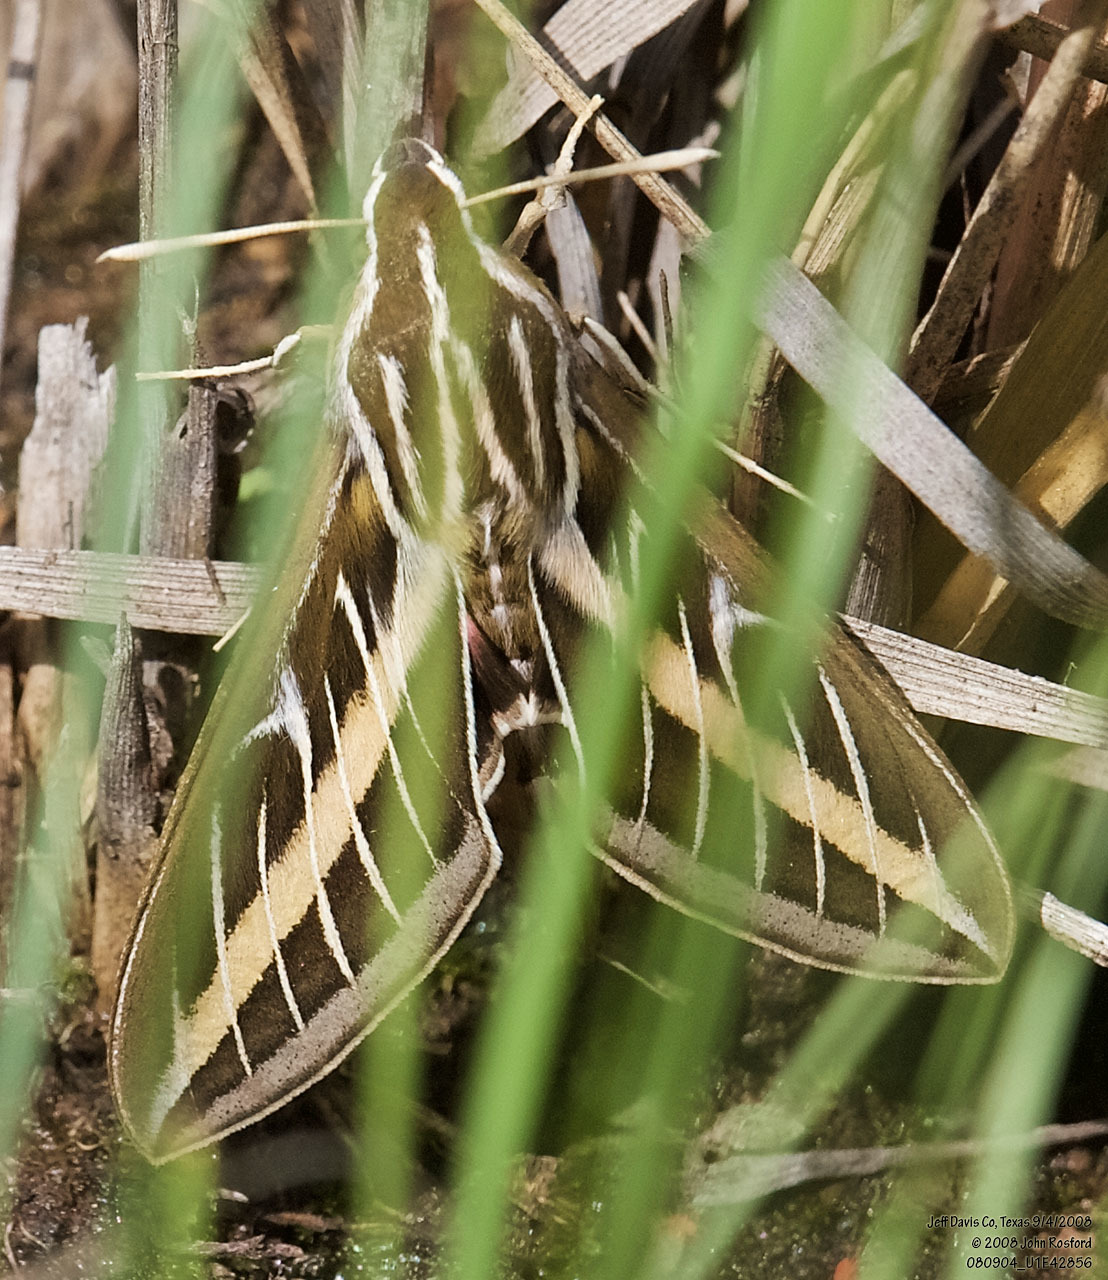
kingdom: Animalia
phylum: Arthropoda
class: Insecta
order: Lepidoptera
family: Sphingidae
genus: Hyles
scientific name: Hyles lineata
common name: White-lined sphinx
